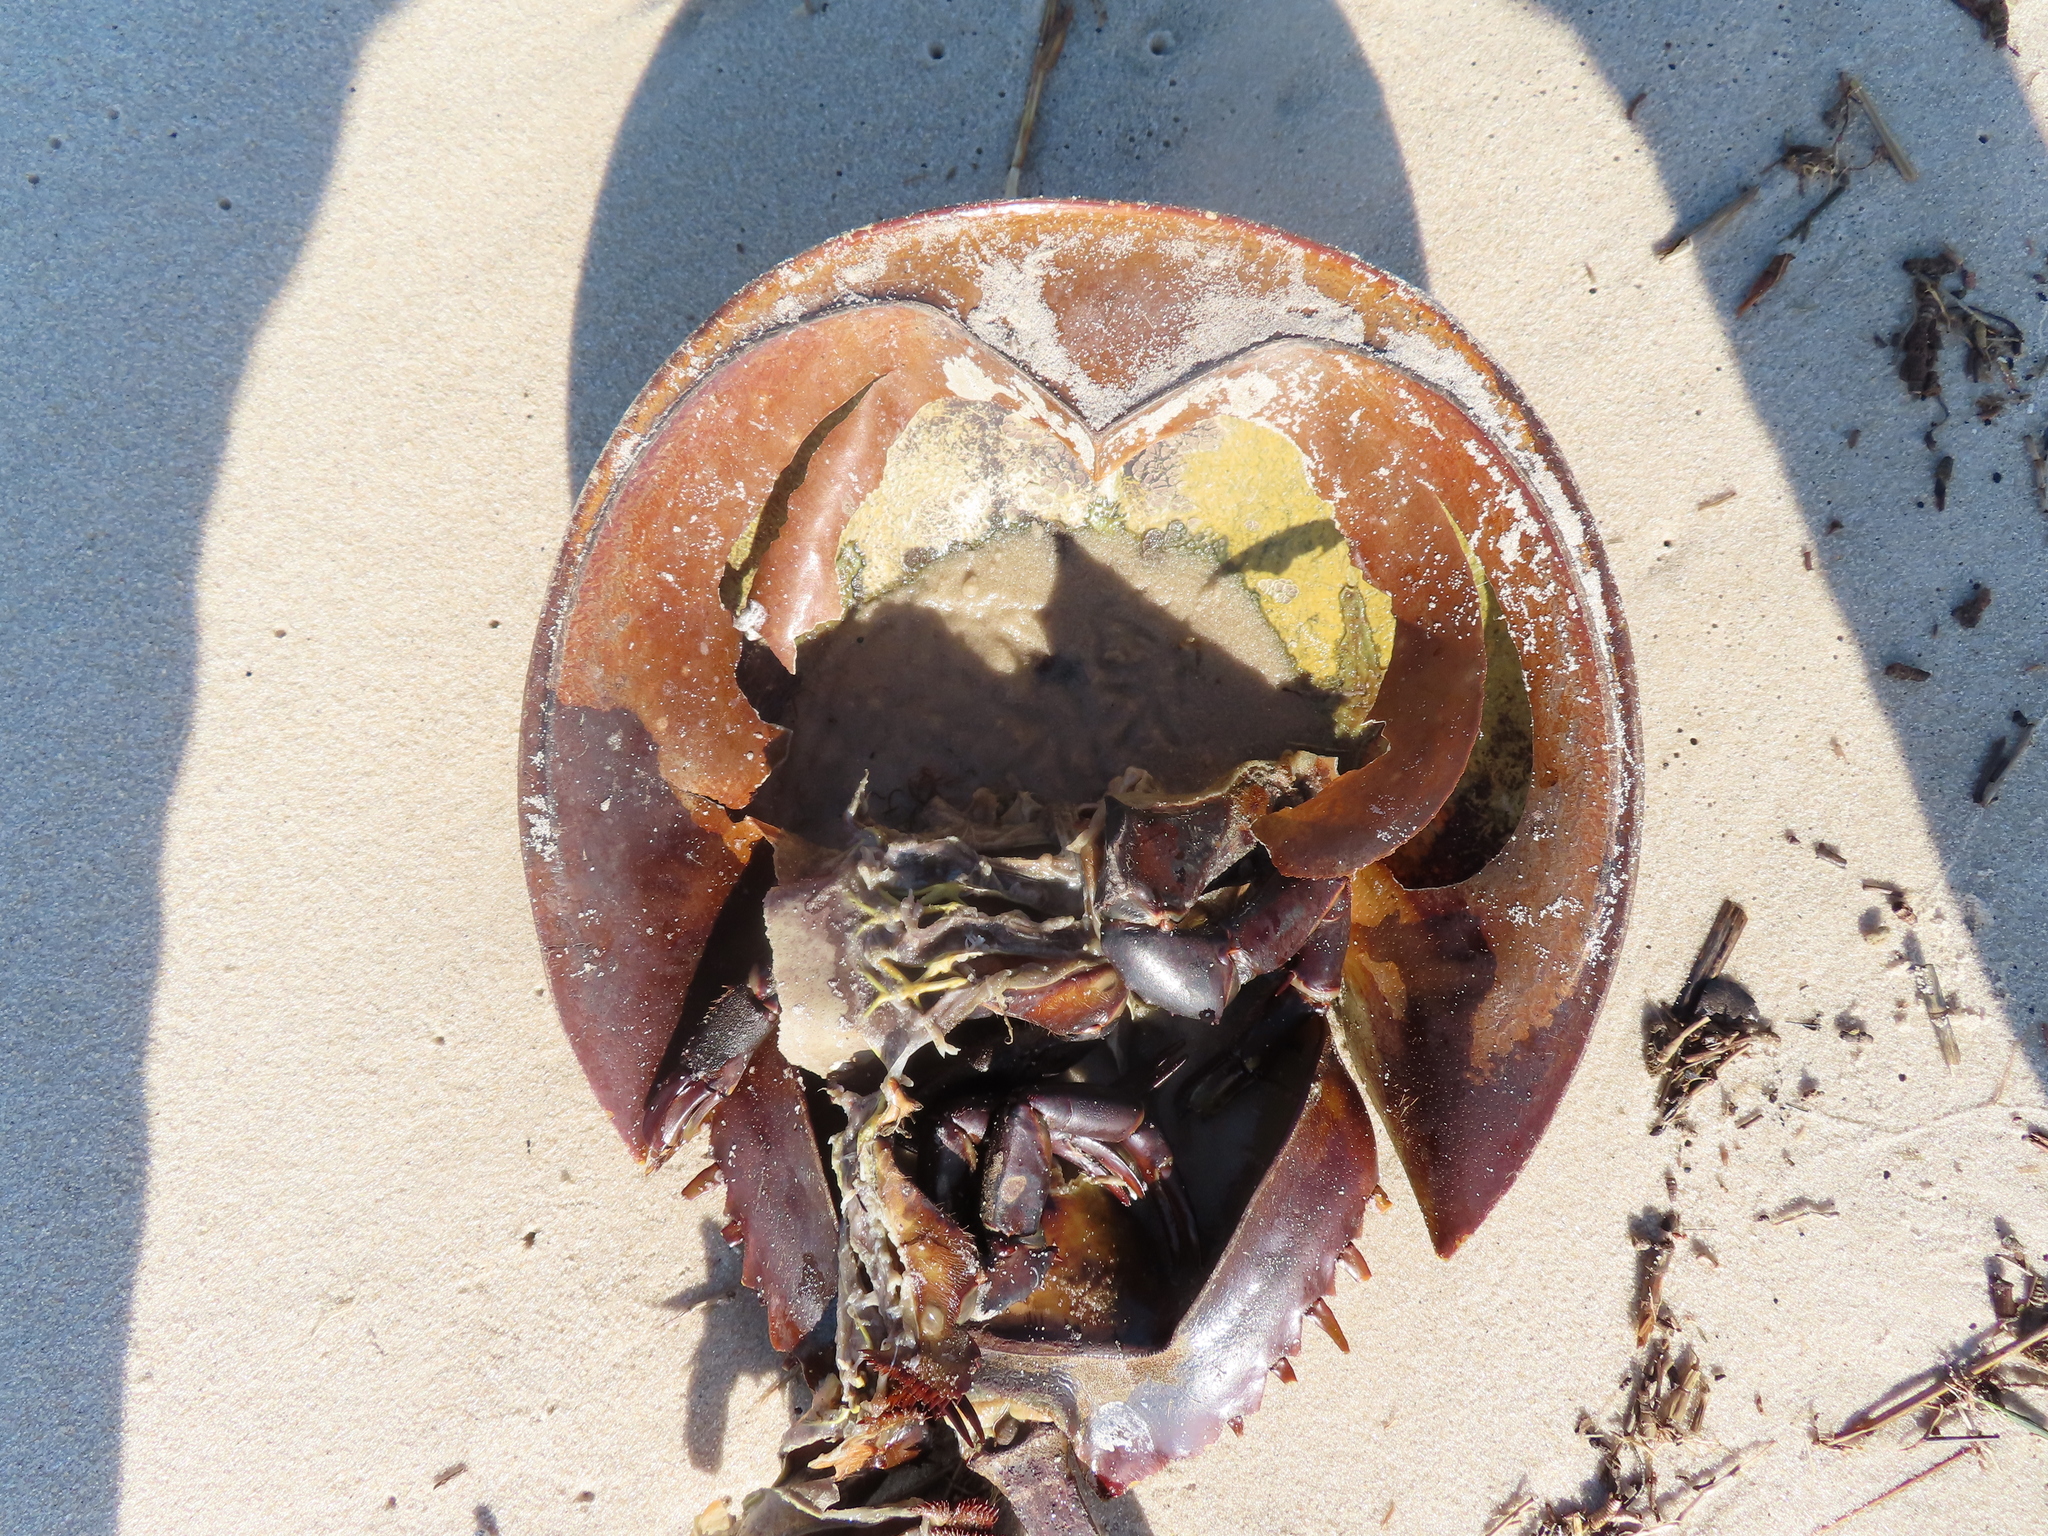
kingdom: Animalia
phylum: Arthropoda
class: Merostomata
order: Xiphosurida
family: Limulidae
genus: Limulus
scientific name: Limulus polyphemus
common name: Horseshoe crab
